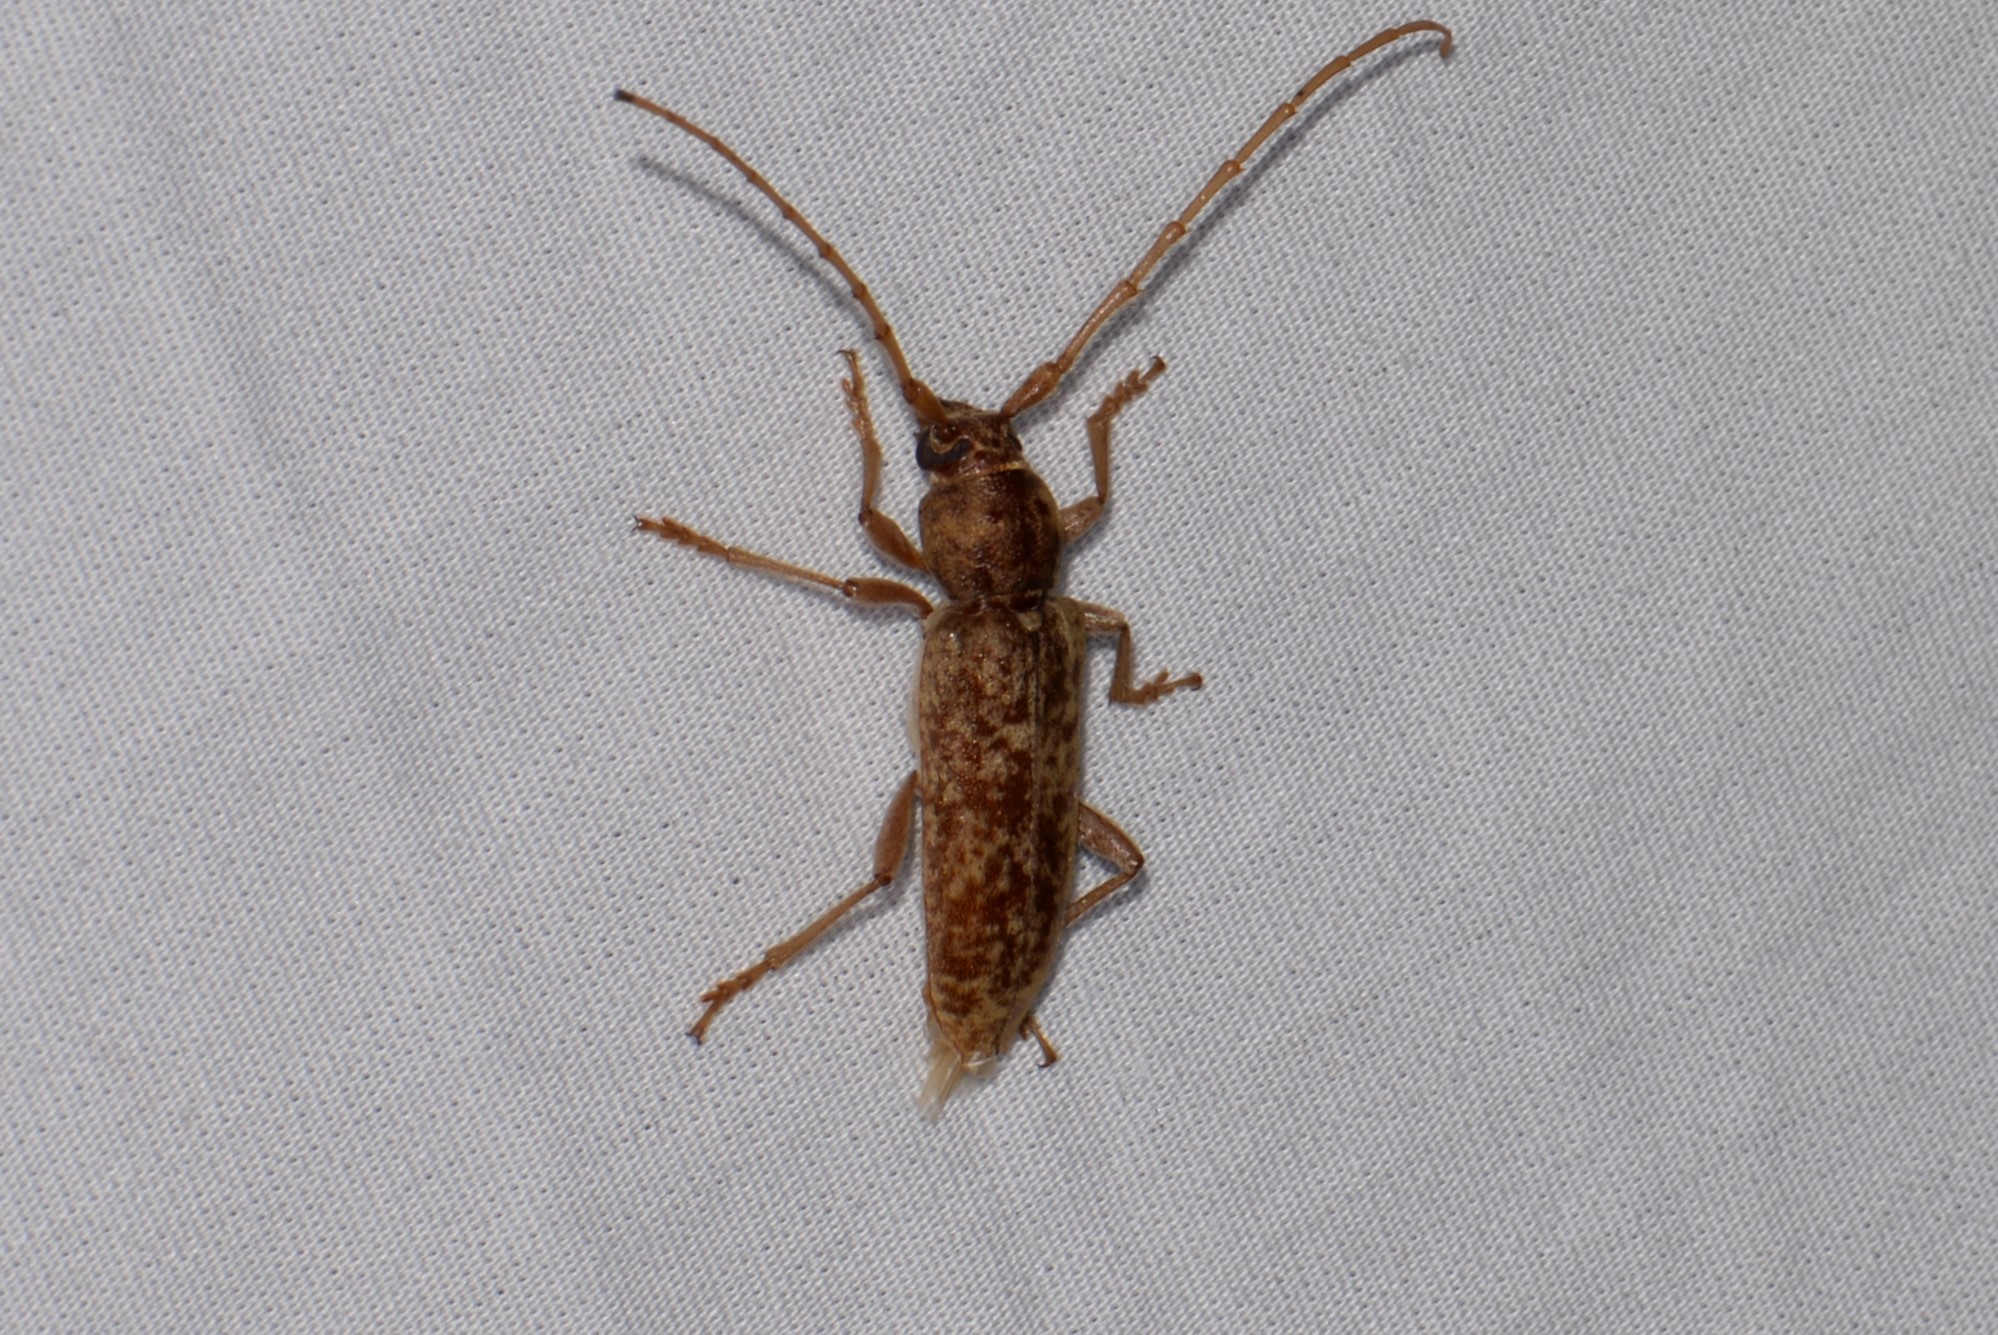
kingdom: Animalia
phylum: Arthropoda
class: Insecta
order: Coleoptera
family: Cerambycidae
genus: Enaphalodes
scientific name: Enaphalodes rufulus
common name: Red oak borer
